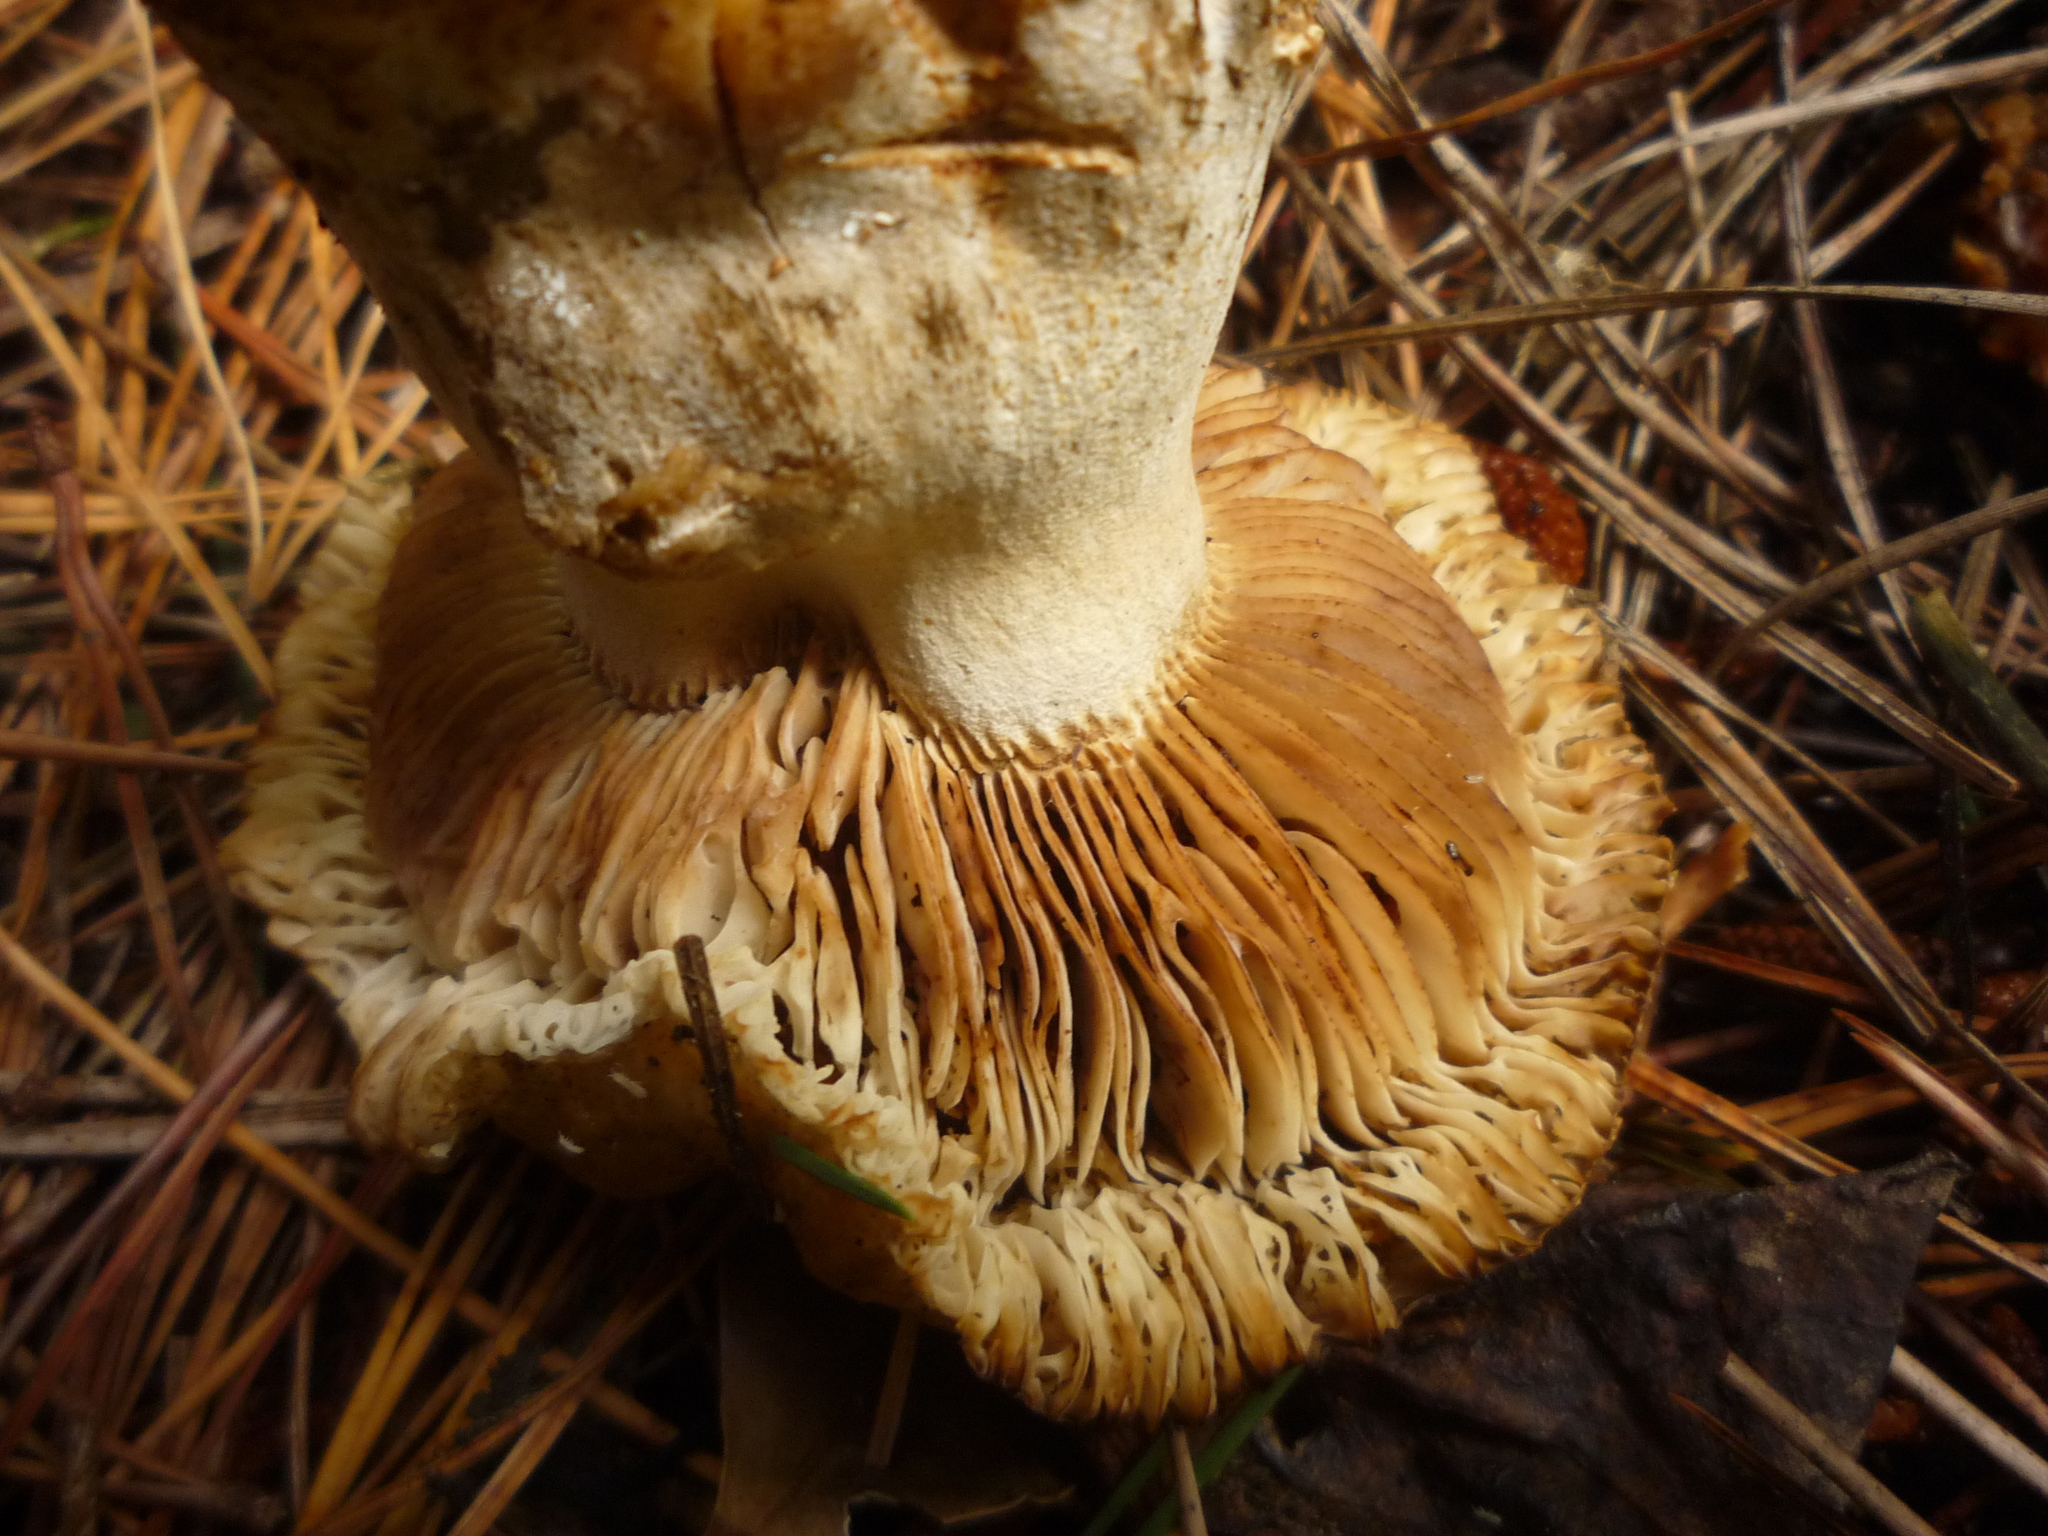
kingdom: Fungi
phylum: Basidiomycota
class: Agaricomycetes
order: Russulales
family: Russulaceae
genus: Russula
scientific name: Russula amoenolens
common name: Camembert brittlegill
